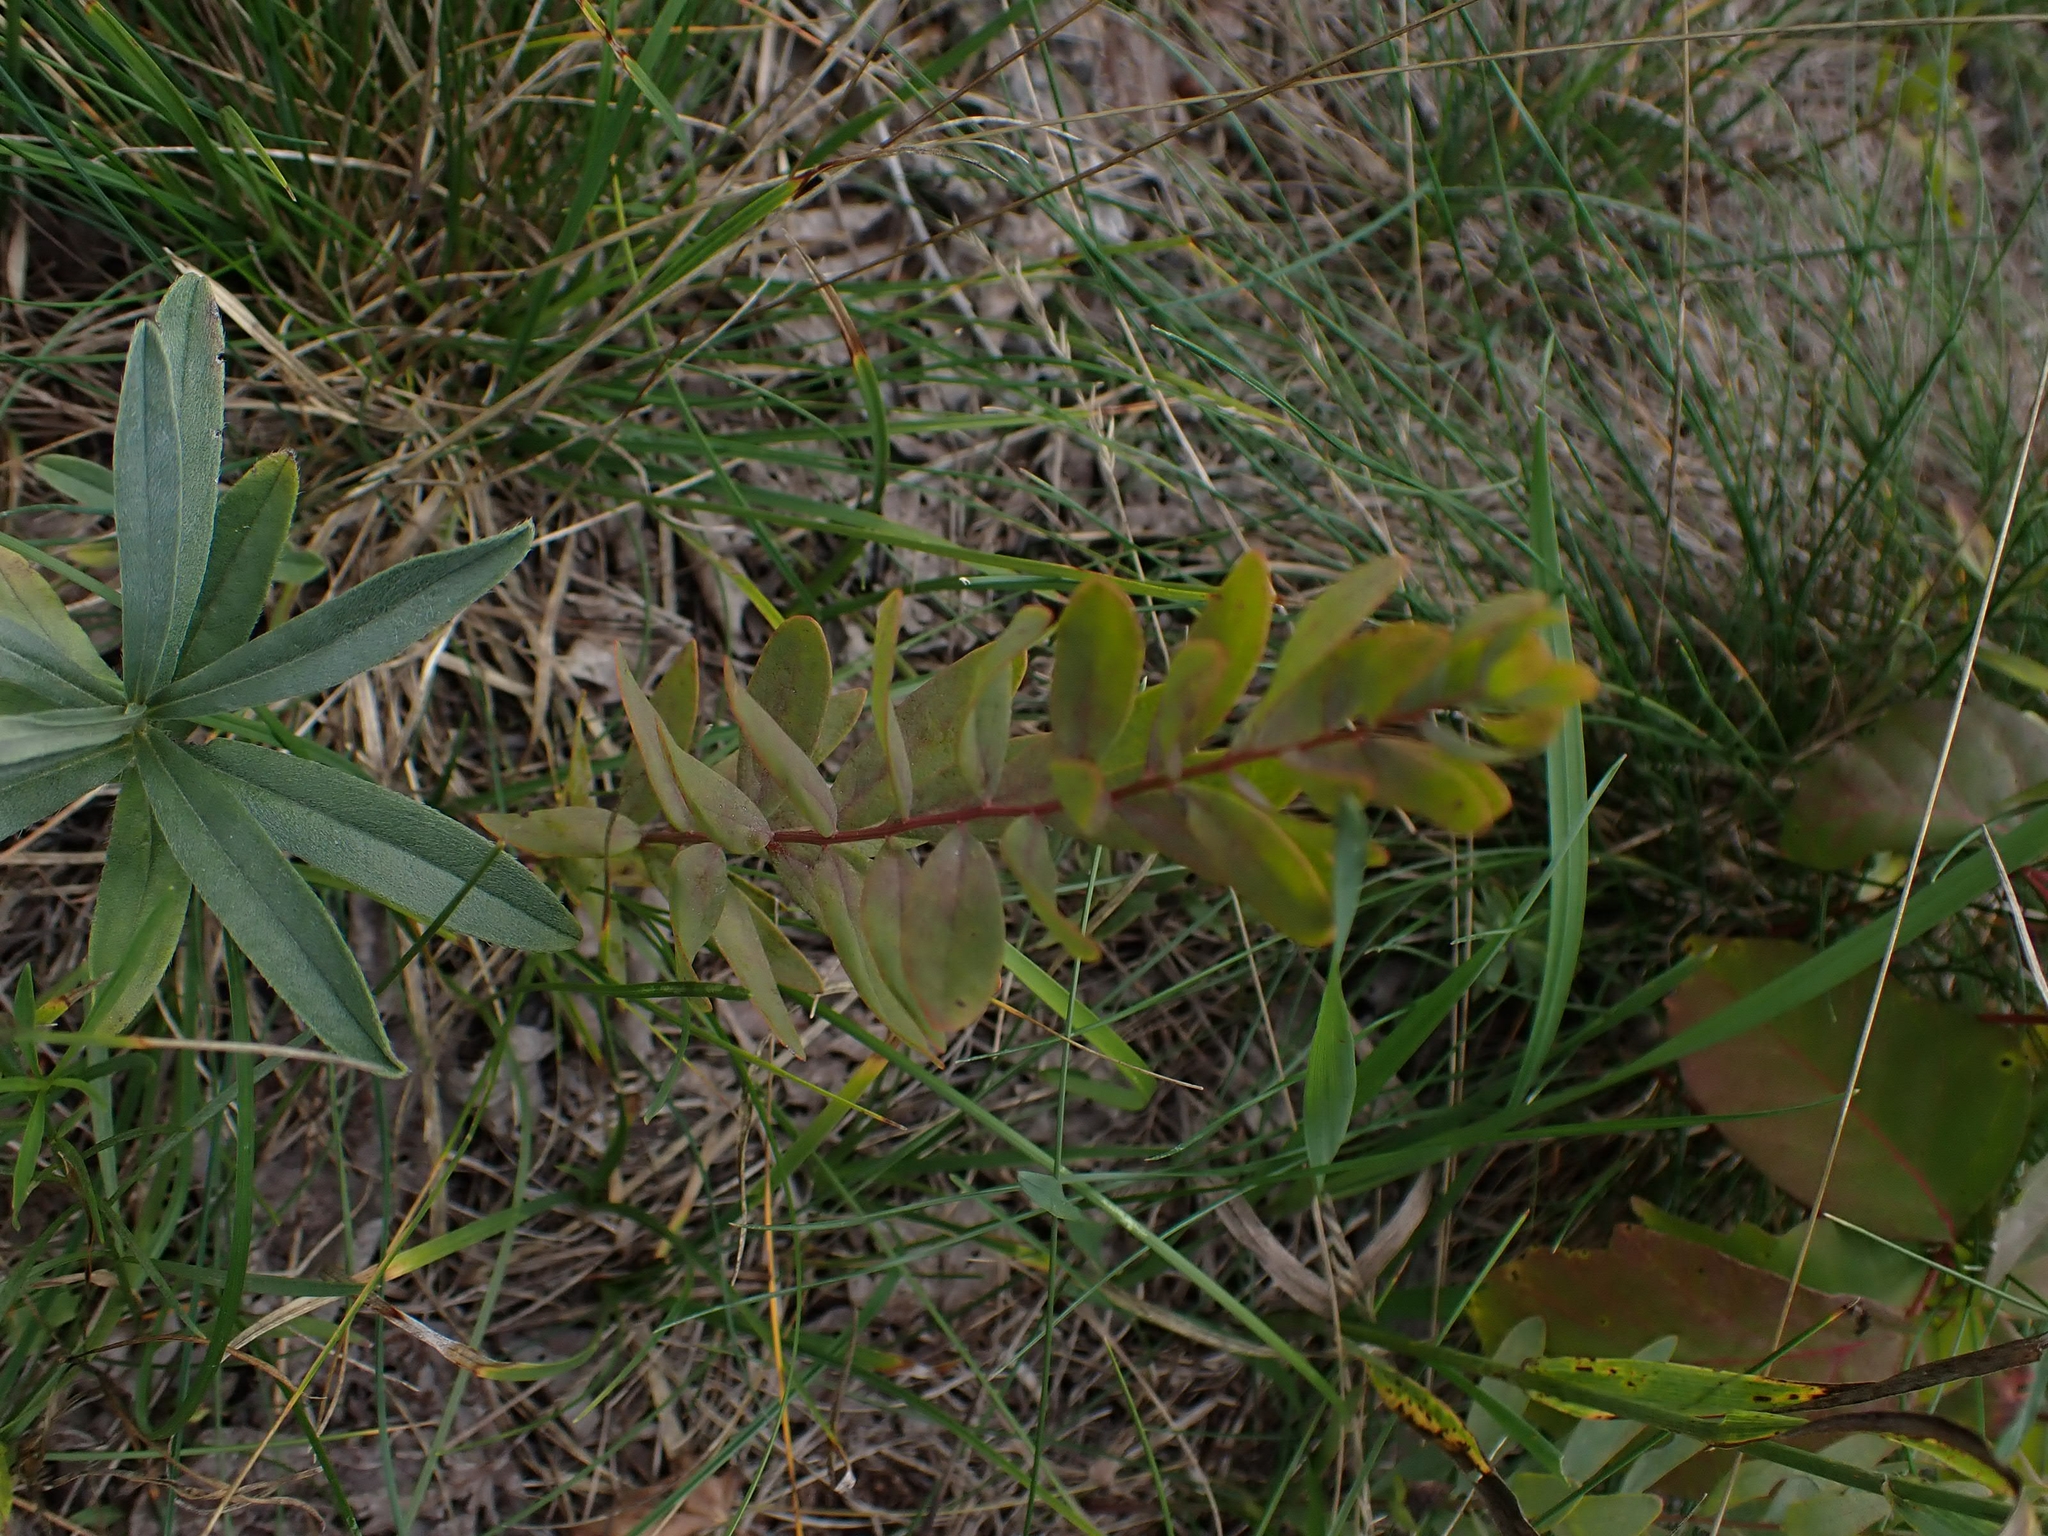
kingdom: Plantae
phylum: Tracheophyta
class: Magnoliopsida
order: Santalales
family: Comandraceae
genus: Comandra
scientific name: Comandra umbellata
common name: Bastard toadflax
